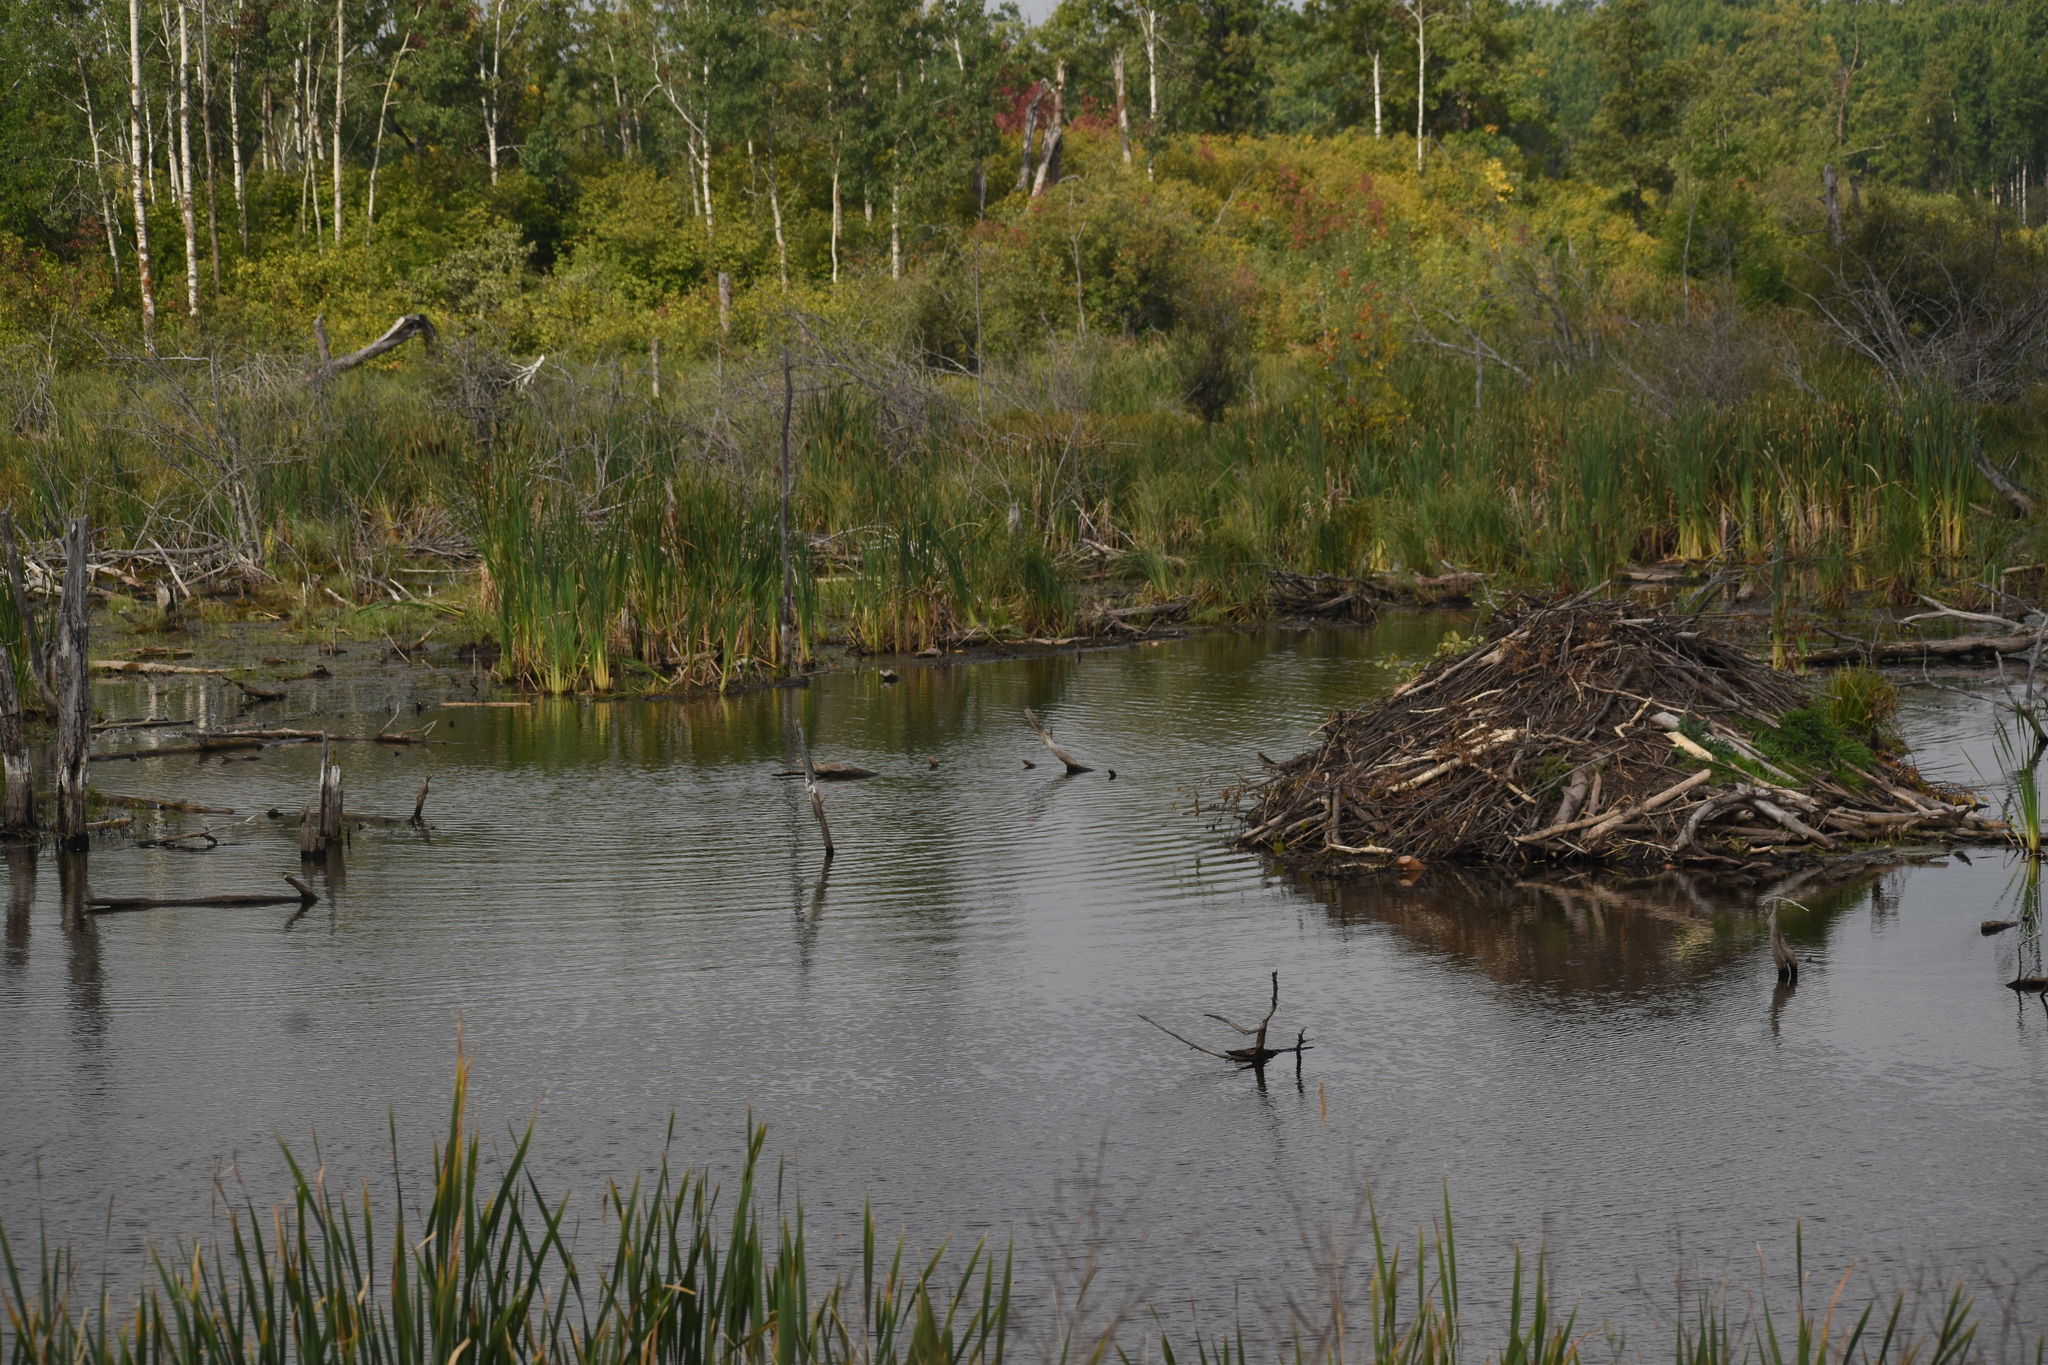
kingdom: Animalia
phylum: Chordata
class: Mammalia
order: Rodentia
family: Castoridae
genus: Castor
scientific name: Castor canadensis
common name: American beaver
